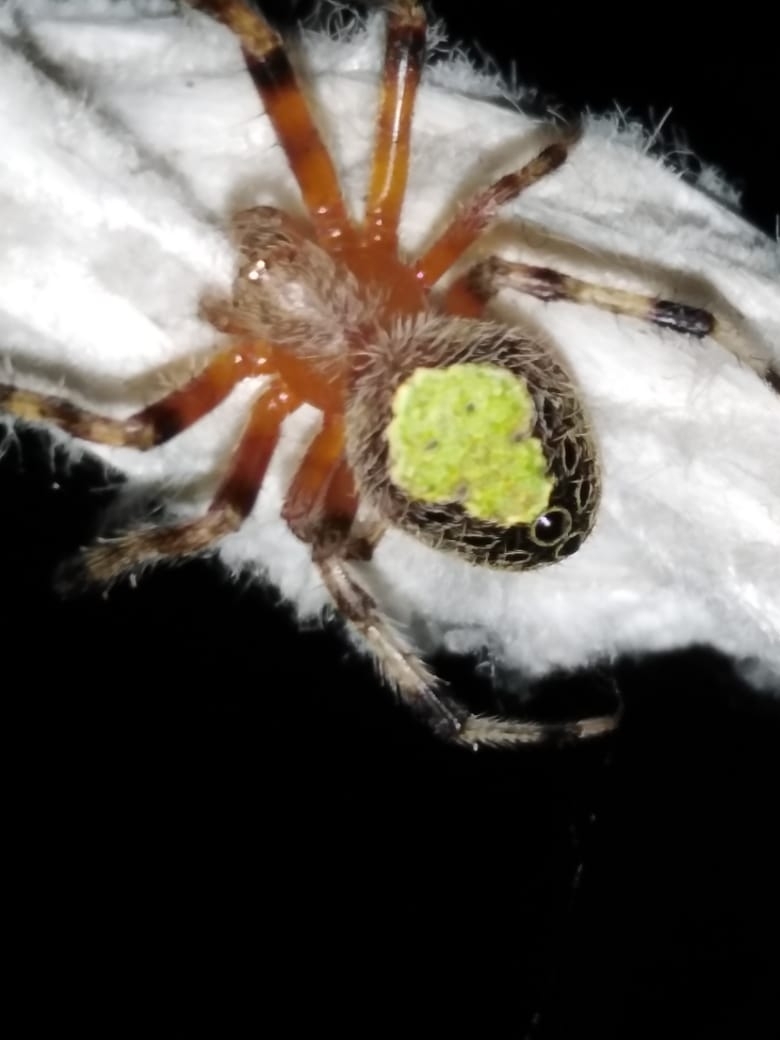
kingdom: Animalia
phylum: Arthropoda
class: Arachnida
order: Araneae
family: Araneidae
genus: Eriophora
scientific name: Eriophora ravilla
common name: Orb weavers
